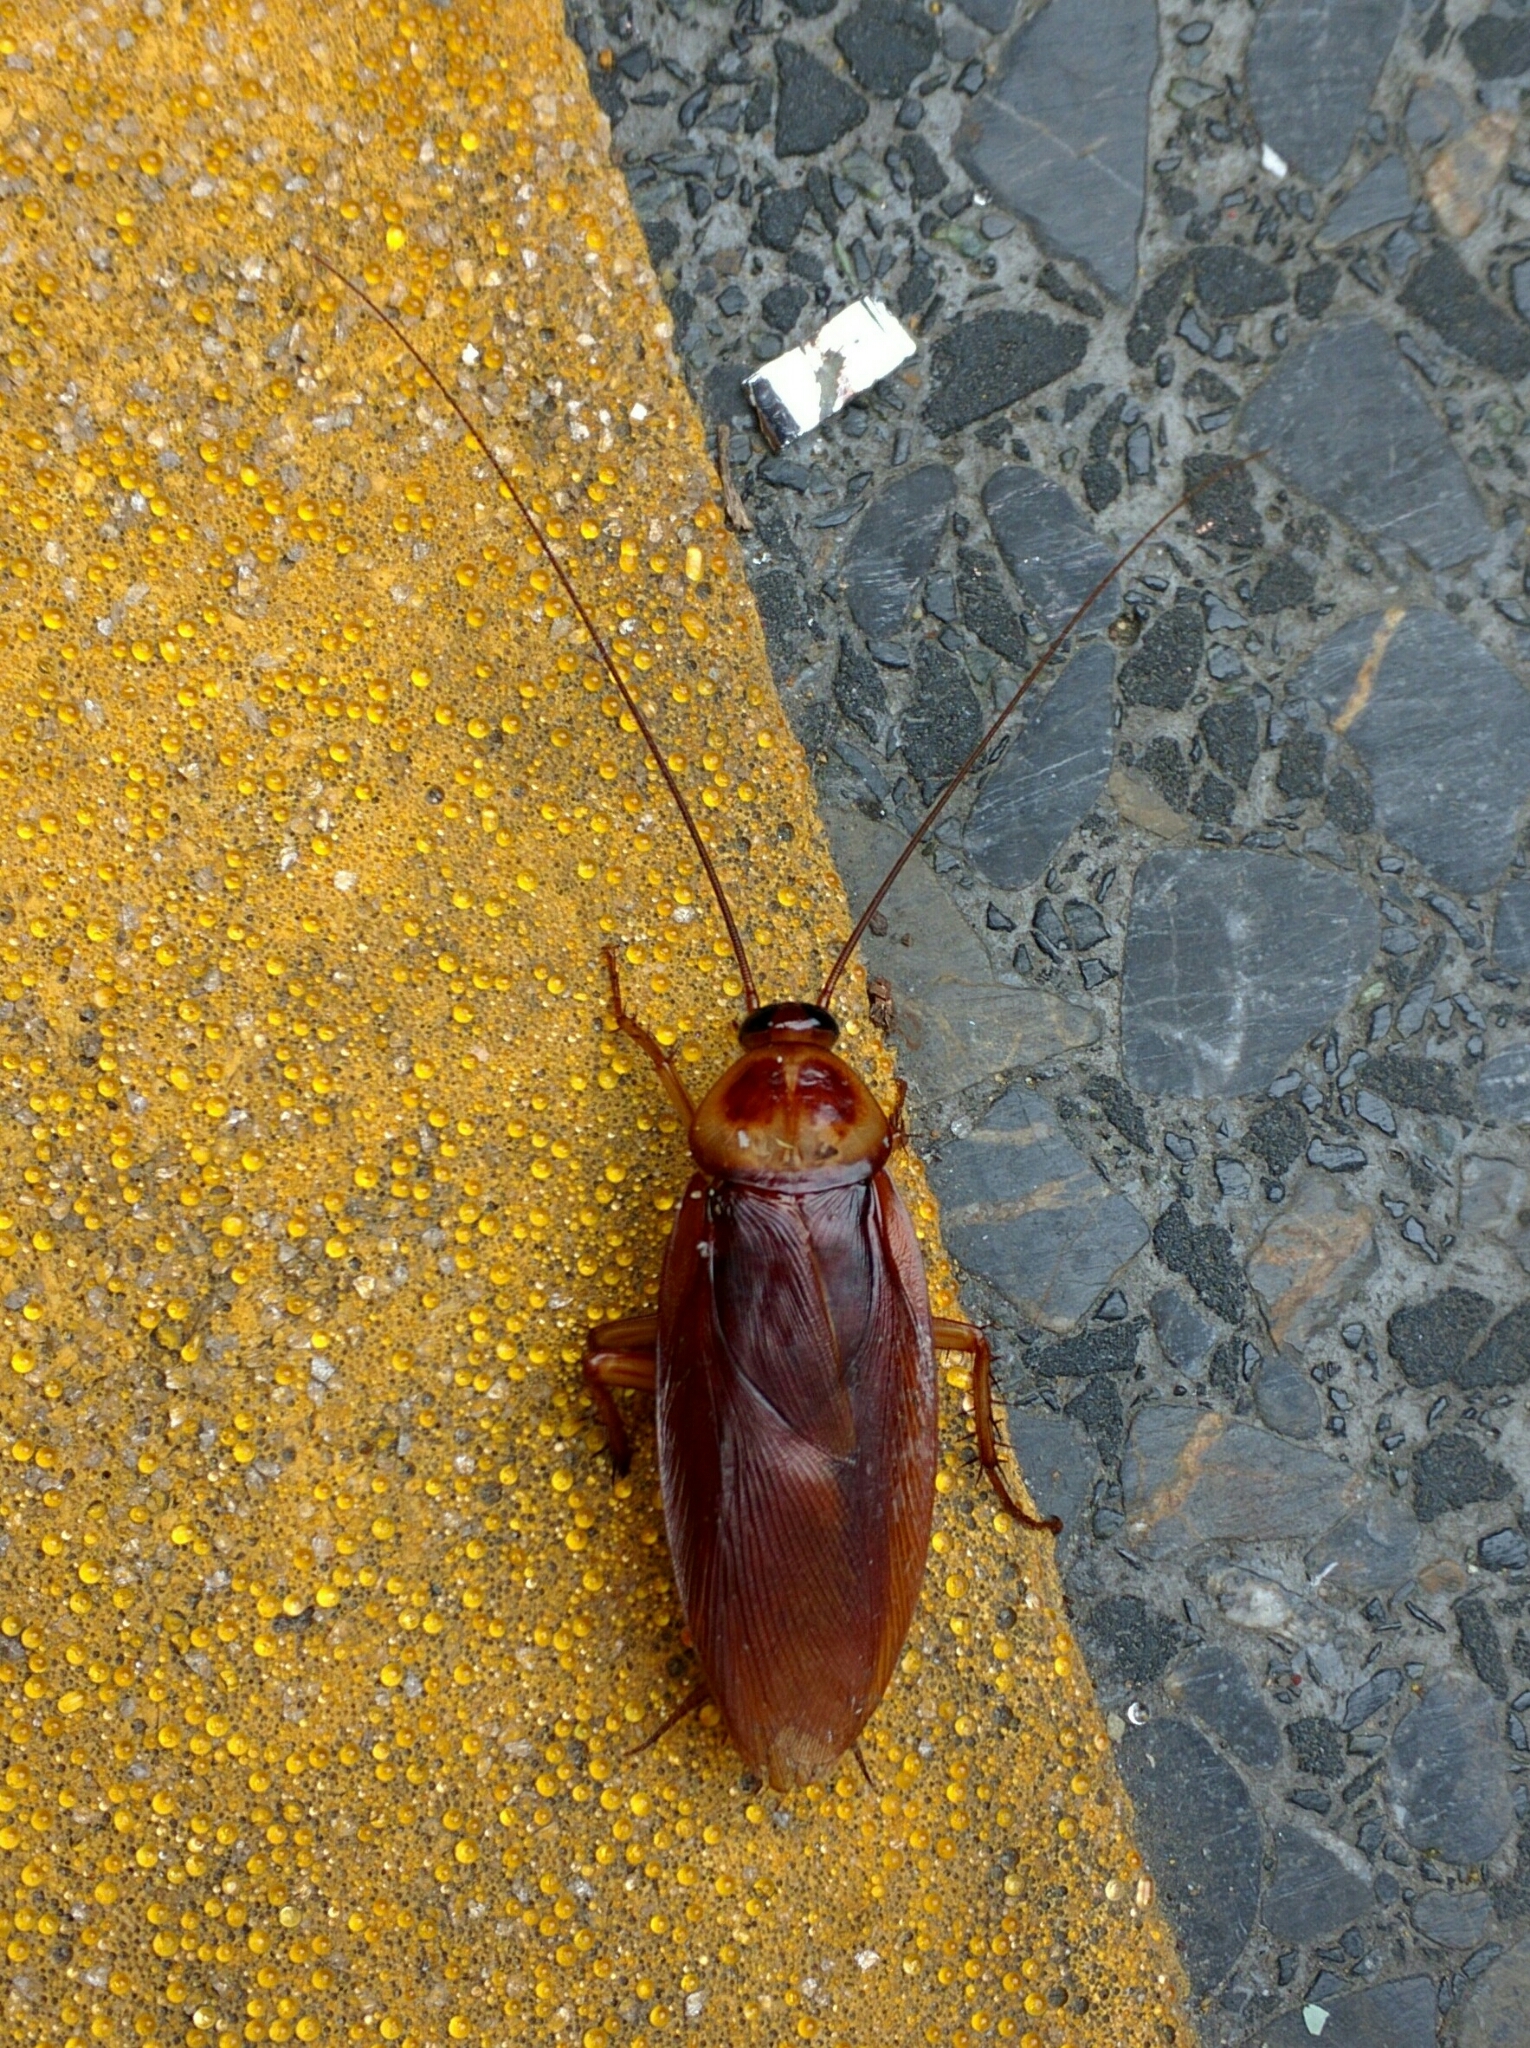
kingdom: Animalia
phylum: Arthropoda
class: Insecta
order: Blattodea
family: Blattidae
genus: Periplaneta
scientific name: Periplaneta americana
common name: American cockroach
